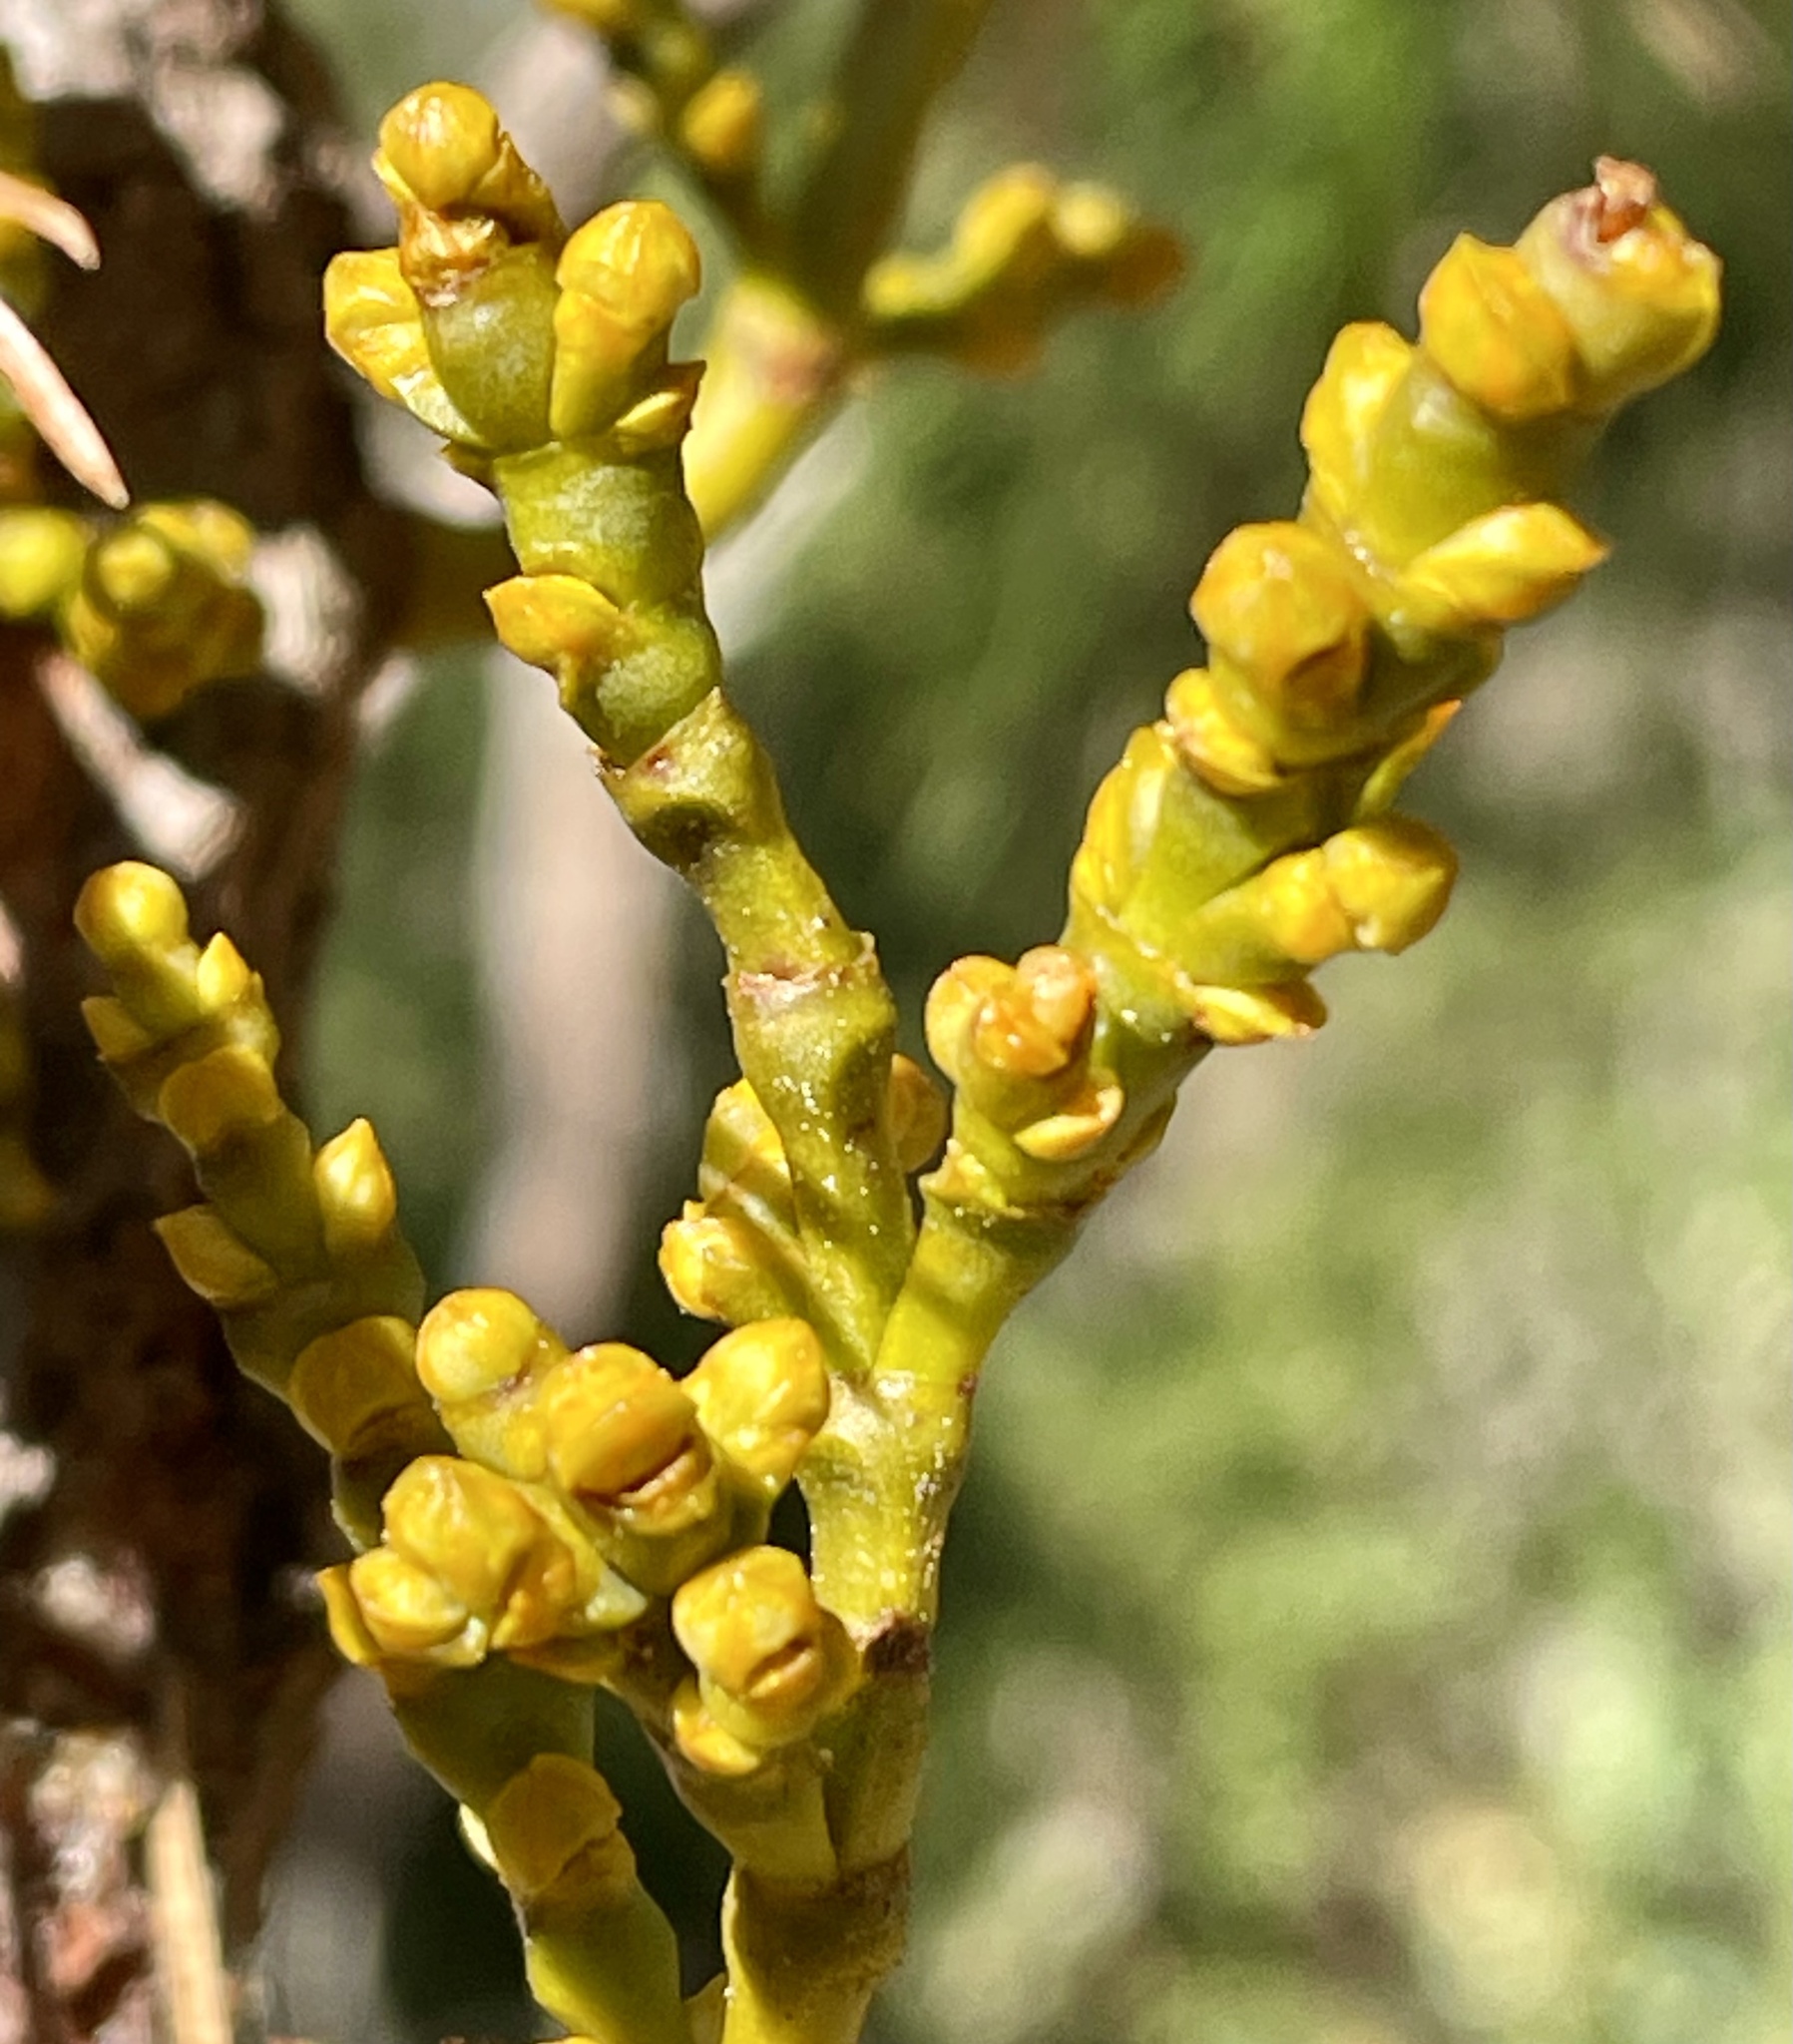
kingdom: Plantae
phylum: Tracheophyta
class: Magnoliopsida
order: Santalales
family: Viscaceae
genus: Arceuthobium
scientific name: Arceuthobium campylopodum
